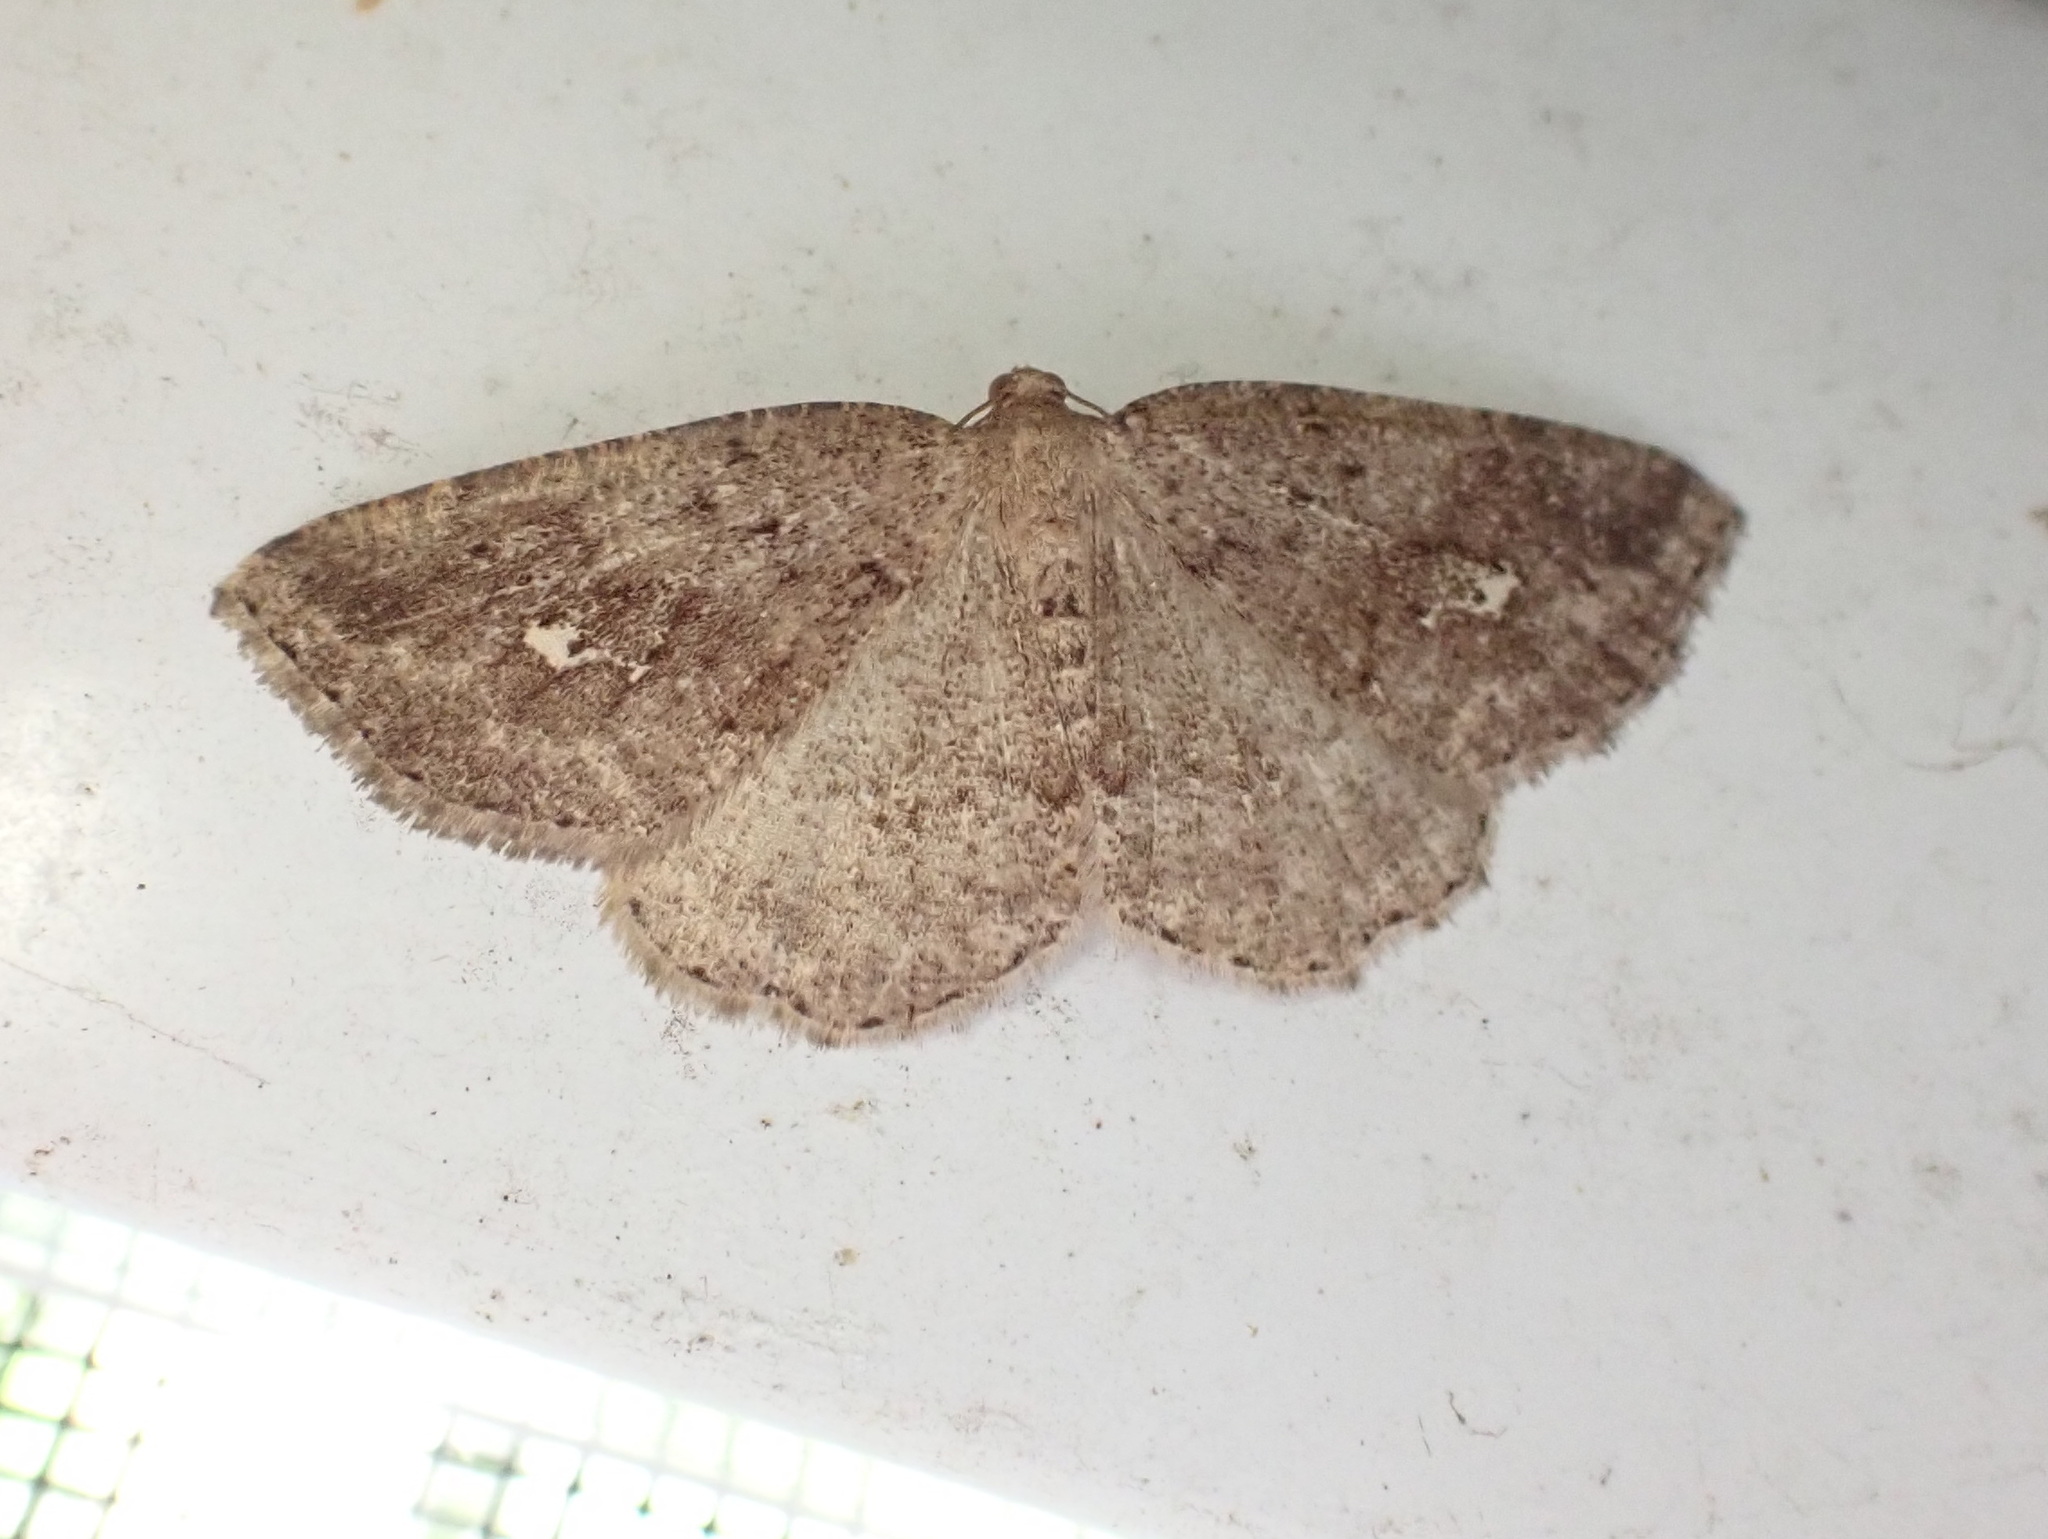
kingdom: Animalia
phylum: Arthropoda
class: Insecta
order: Lepidoptera
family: Geometridae
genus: Homochlodes
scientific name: Homochlodes fritillaria
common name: Pale homochlodes
